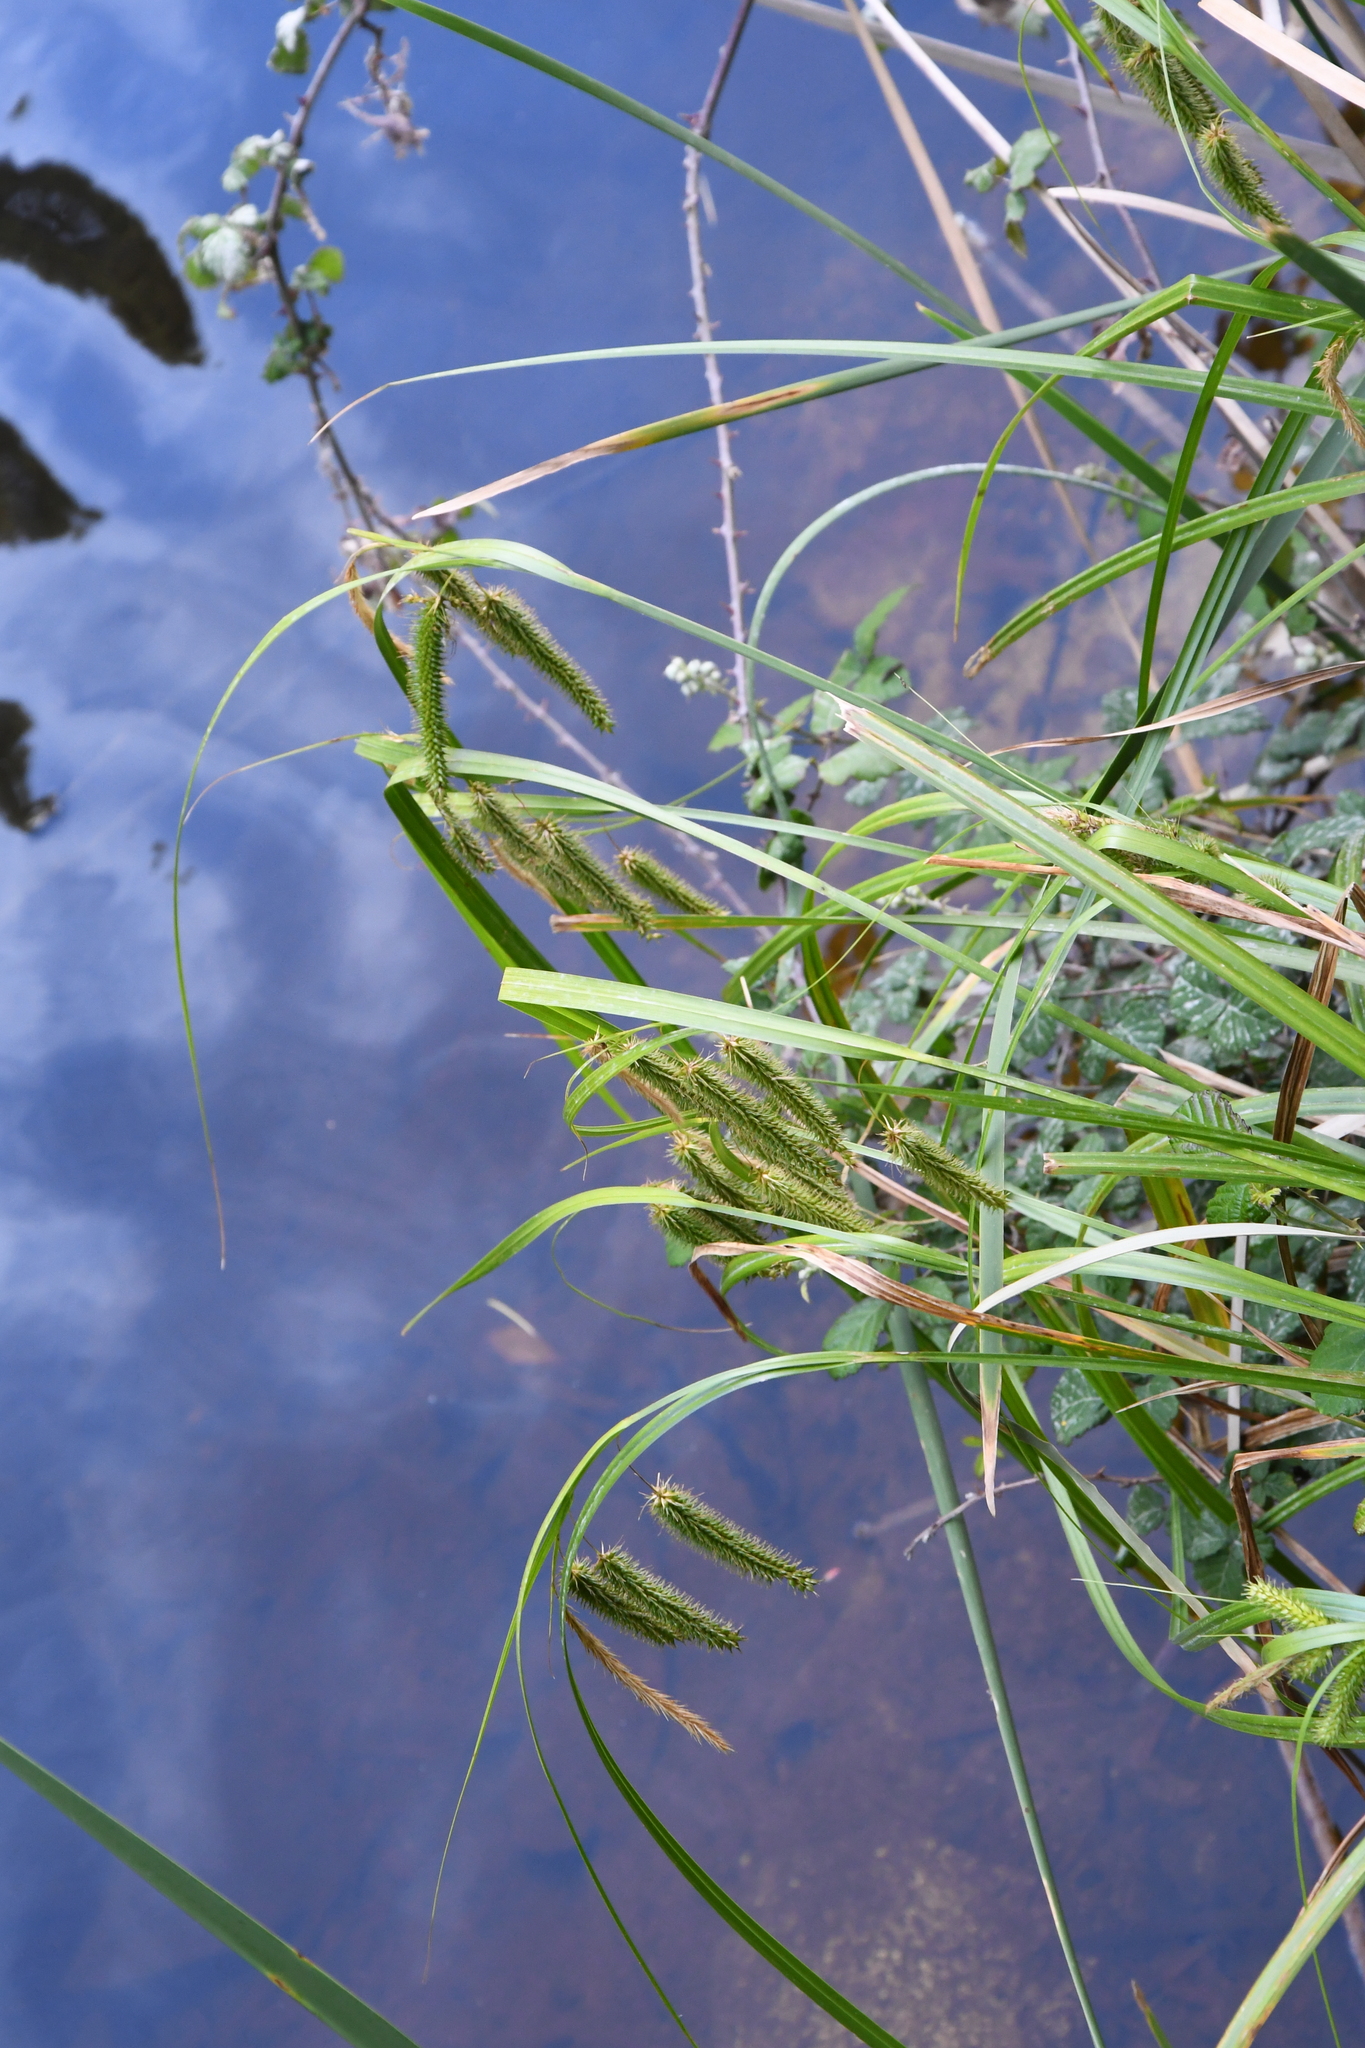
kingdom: Plantae
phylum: Tracheophyta
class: Liliopsida
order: Poales
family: Cyperaceae
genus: Carex
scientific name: Carex fascicularis
